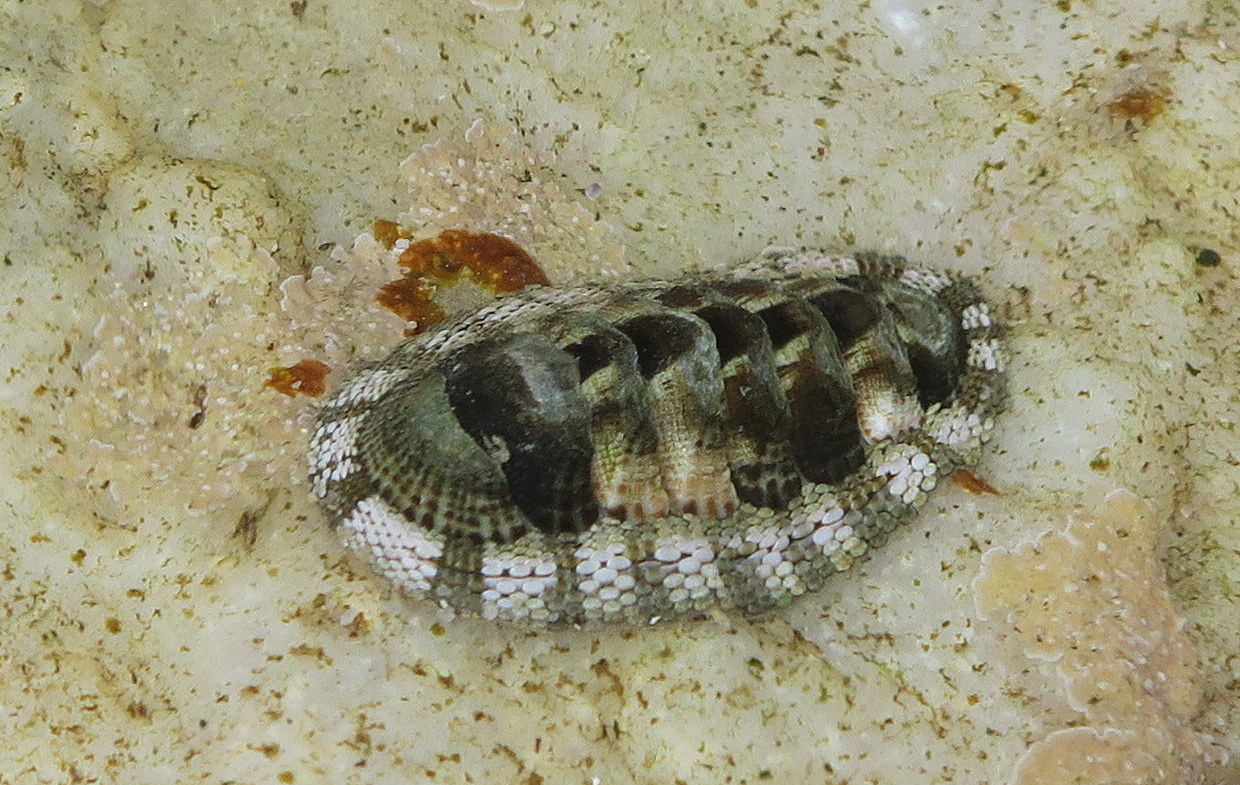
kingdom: Animalia
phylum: Mollusca
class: Polyplacophora
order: Chitonida
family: Chitonidae
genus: Sypharochiton
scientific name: Sypharochiton pelliserpentis
